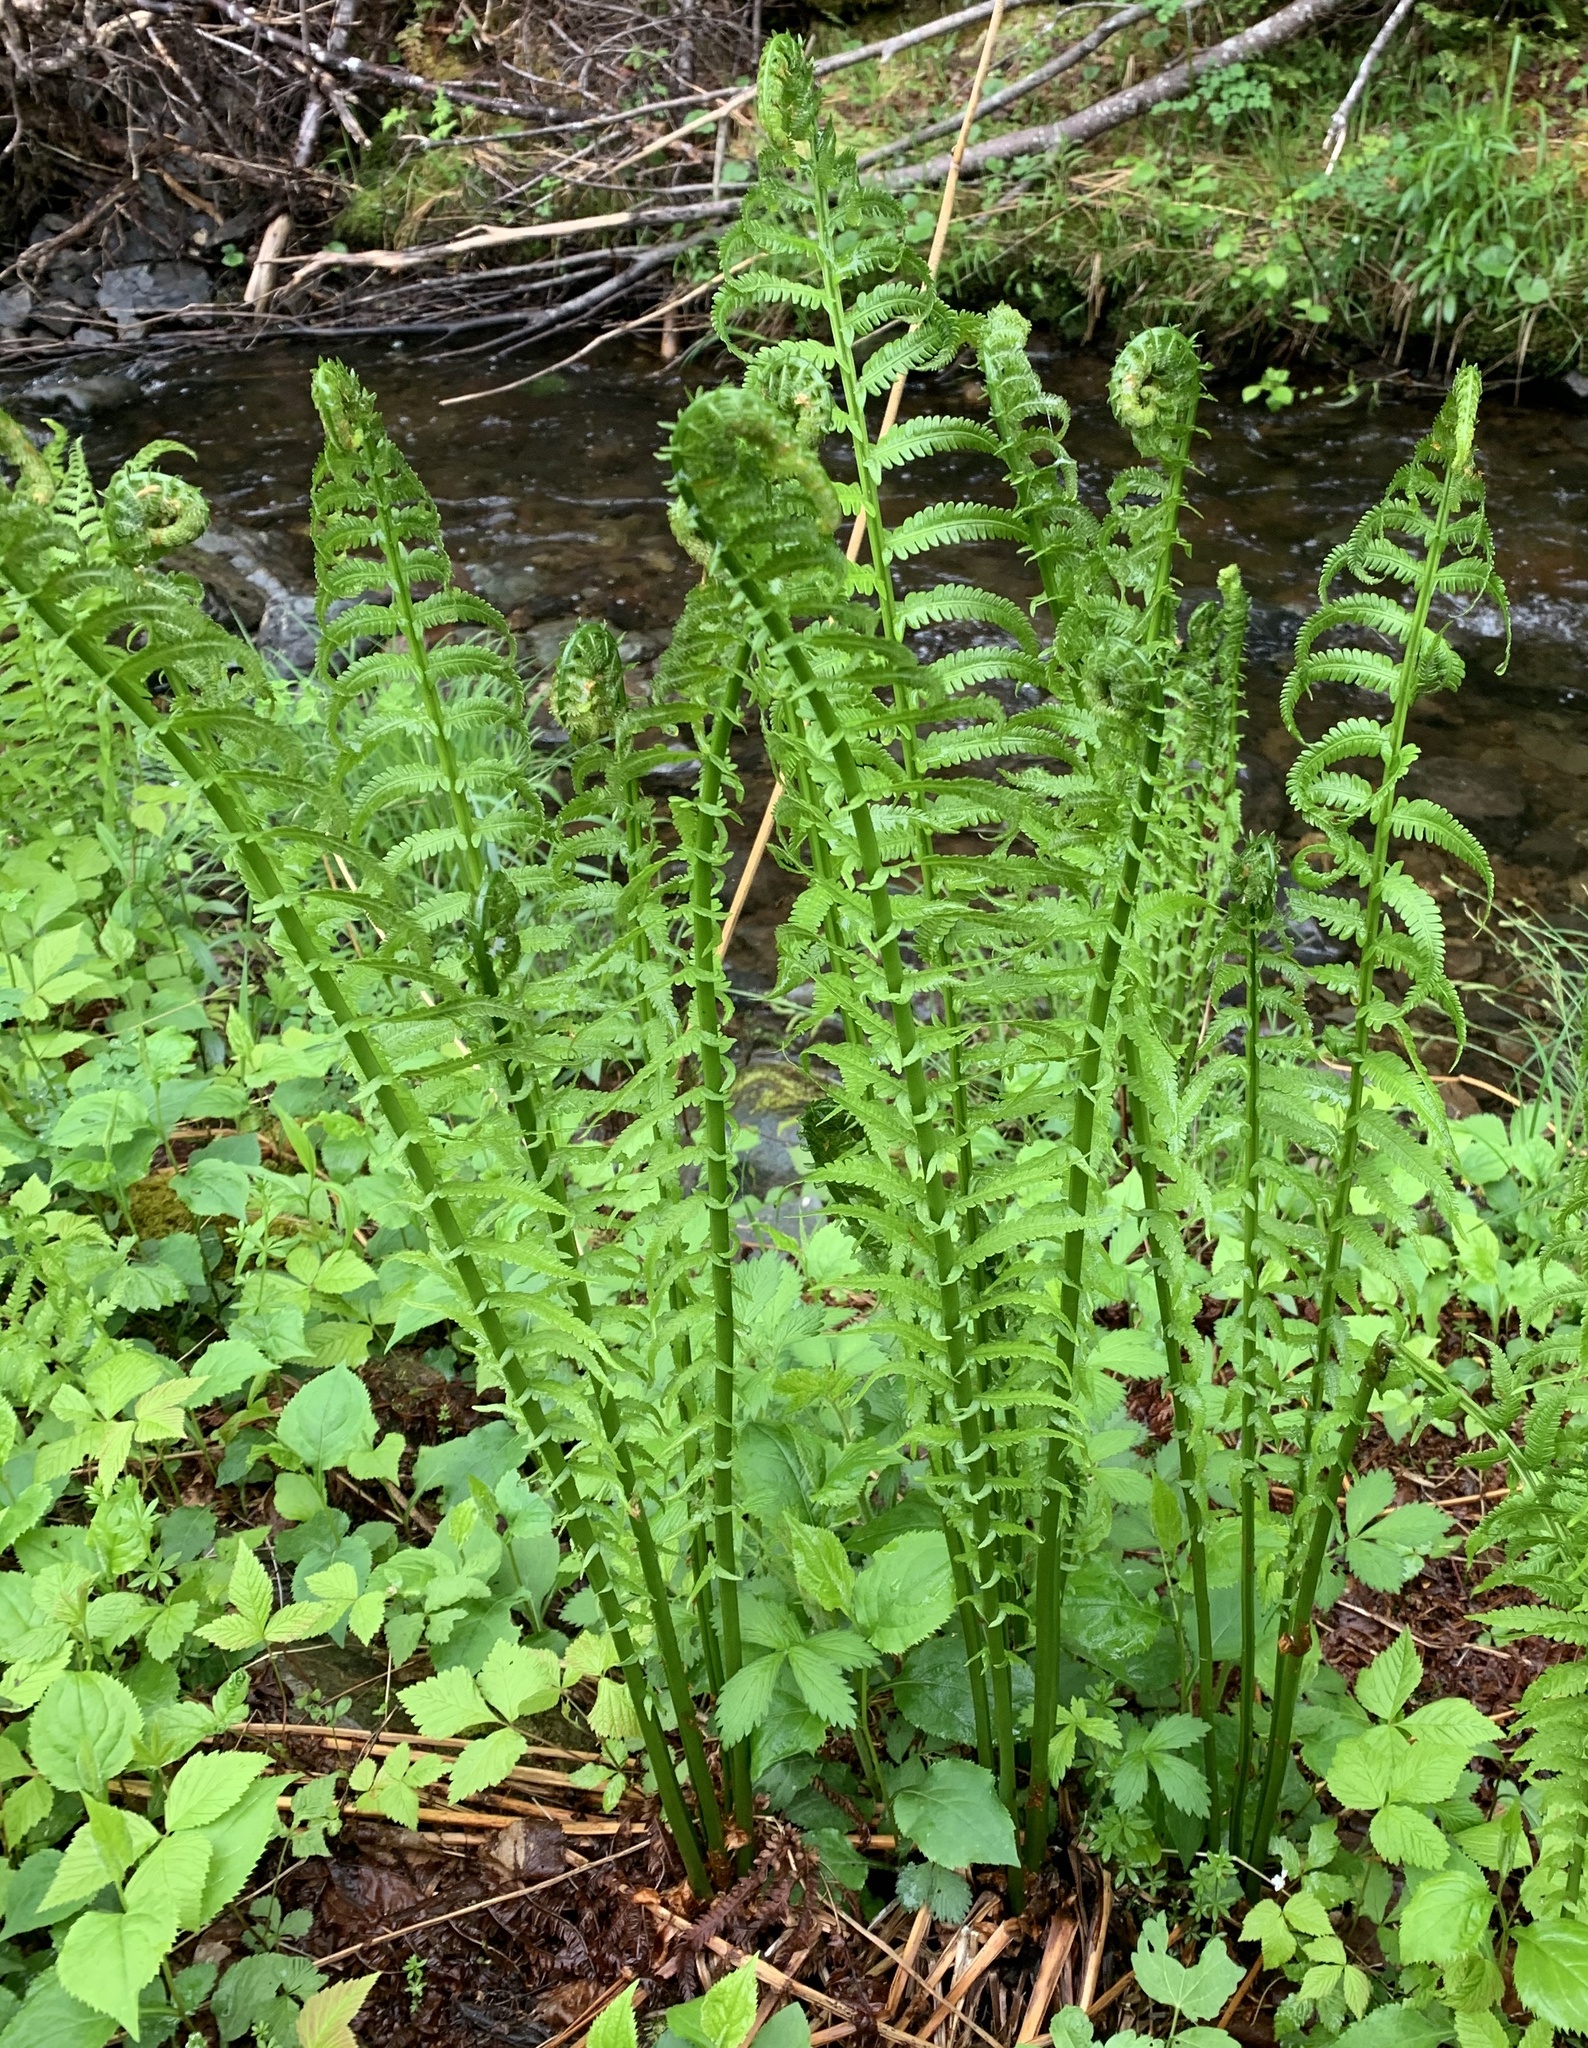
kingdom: Plantae
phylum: Tracheophyta
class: Polypodiopsida
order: Polypodiales
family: Onocleaceae
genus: Matteuccia
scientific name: Matteuccia struthiopteris
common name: Ostrich fern
